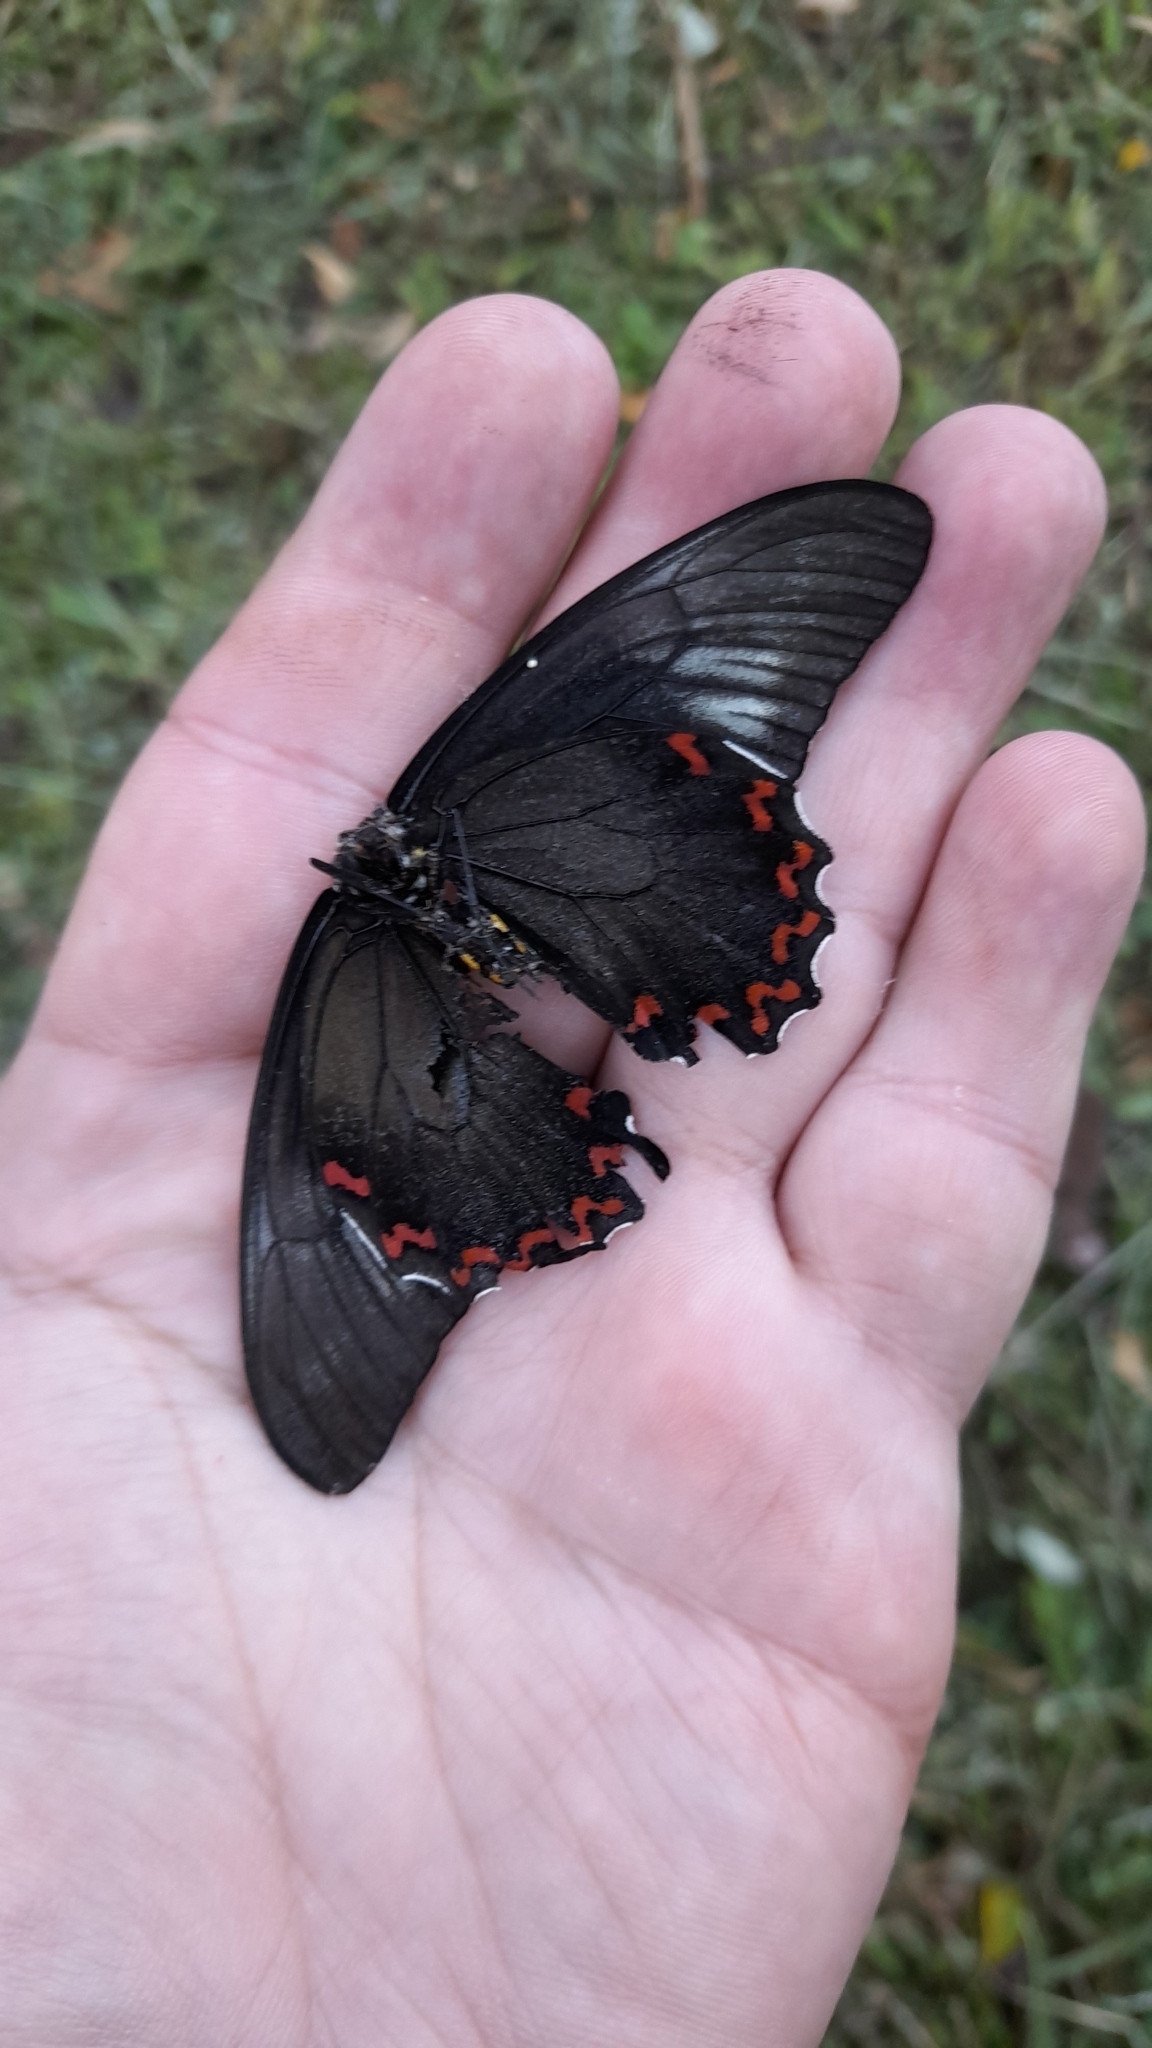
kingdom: Animalia
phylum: Arthropoda
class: Insecta
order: Lepidoptera
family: Papilionidae
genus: Battus
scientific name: Battus polystictus
